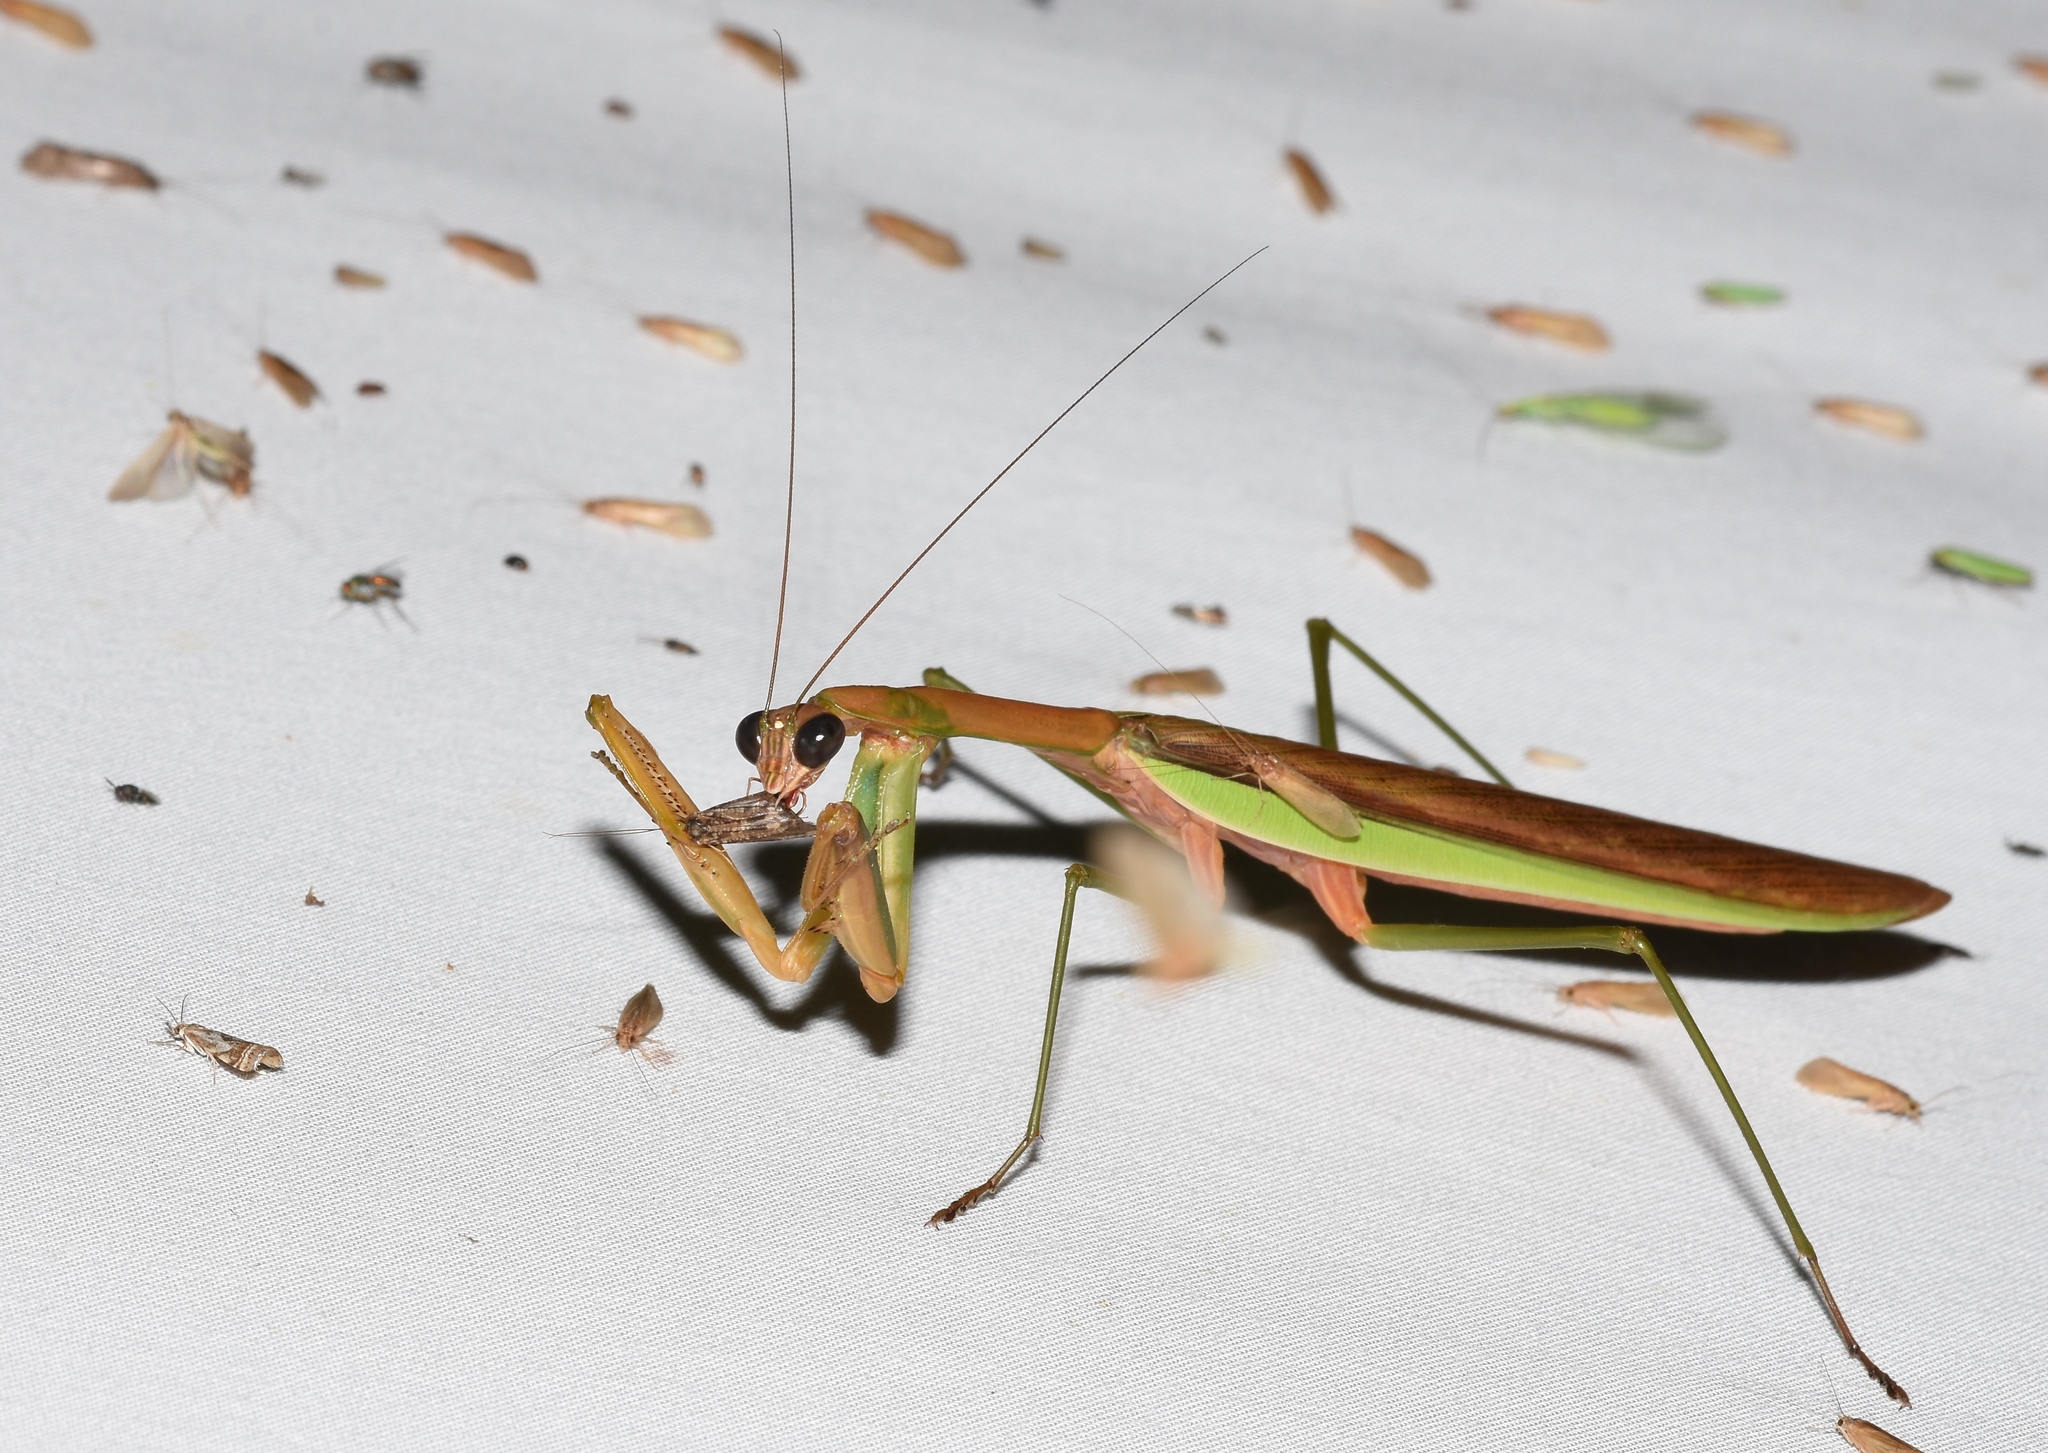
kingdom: Animalia
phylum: Arthropoda
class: Insecta
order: Mantodea
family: Mantidae
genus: Tenodera
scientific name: Tenodera sinensis
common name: Chinese mantis
